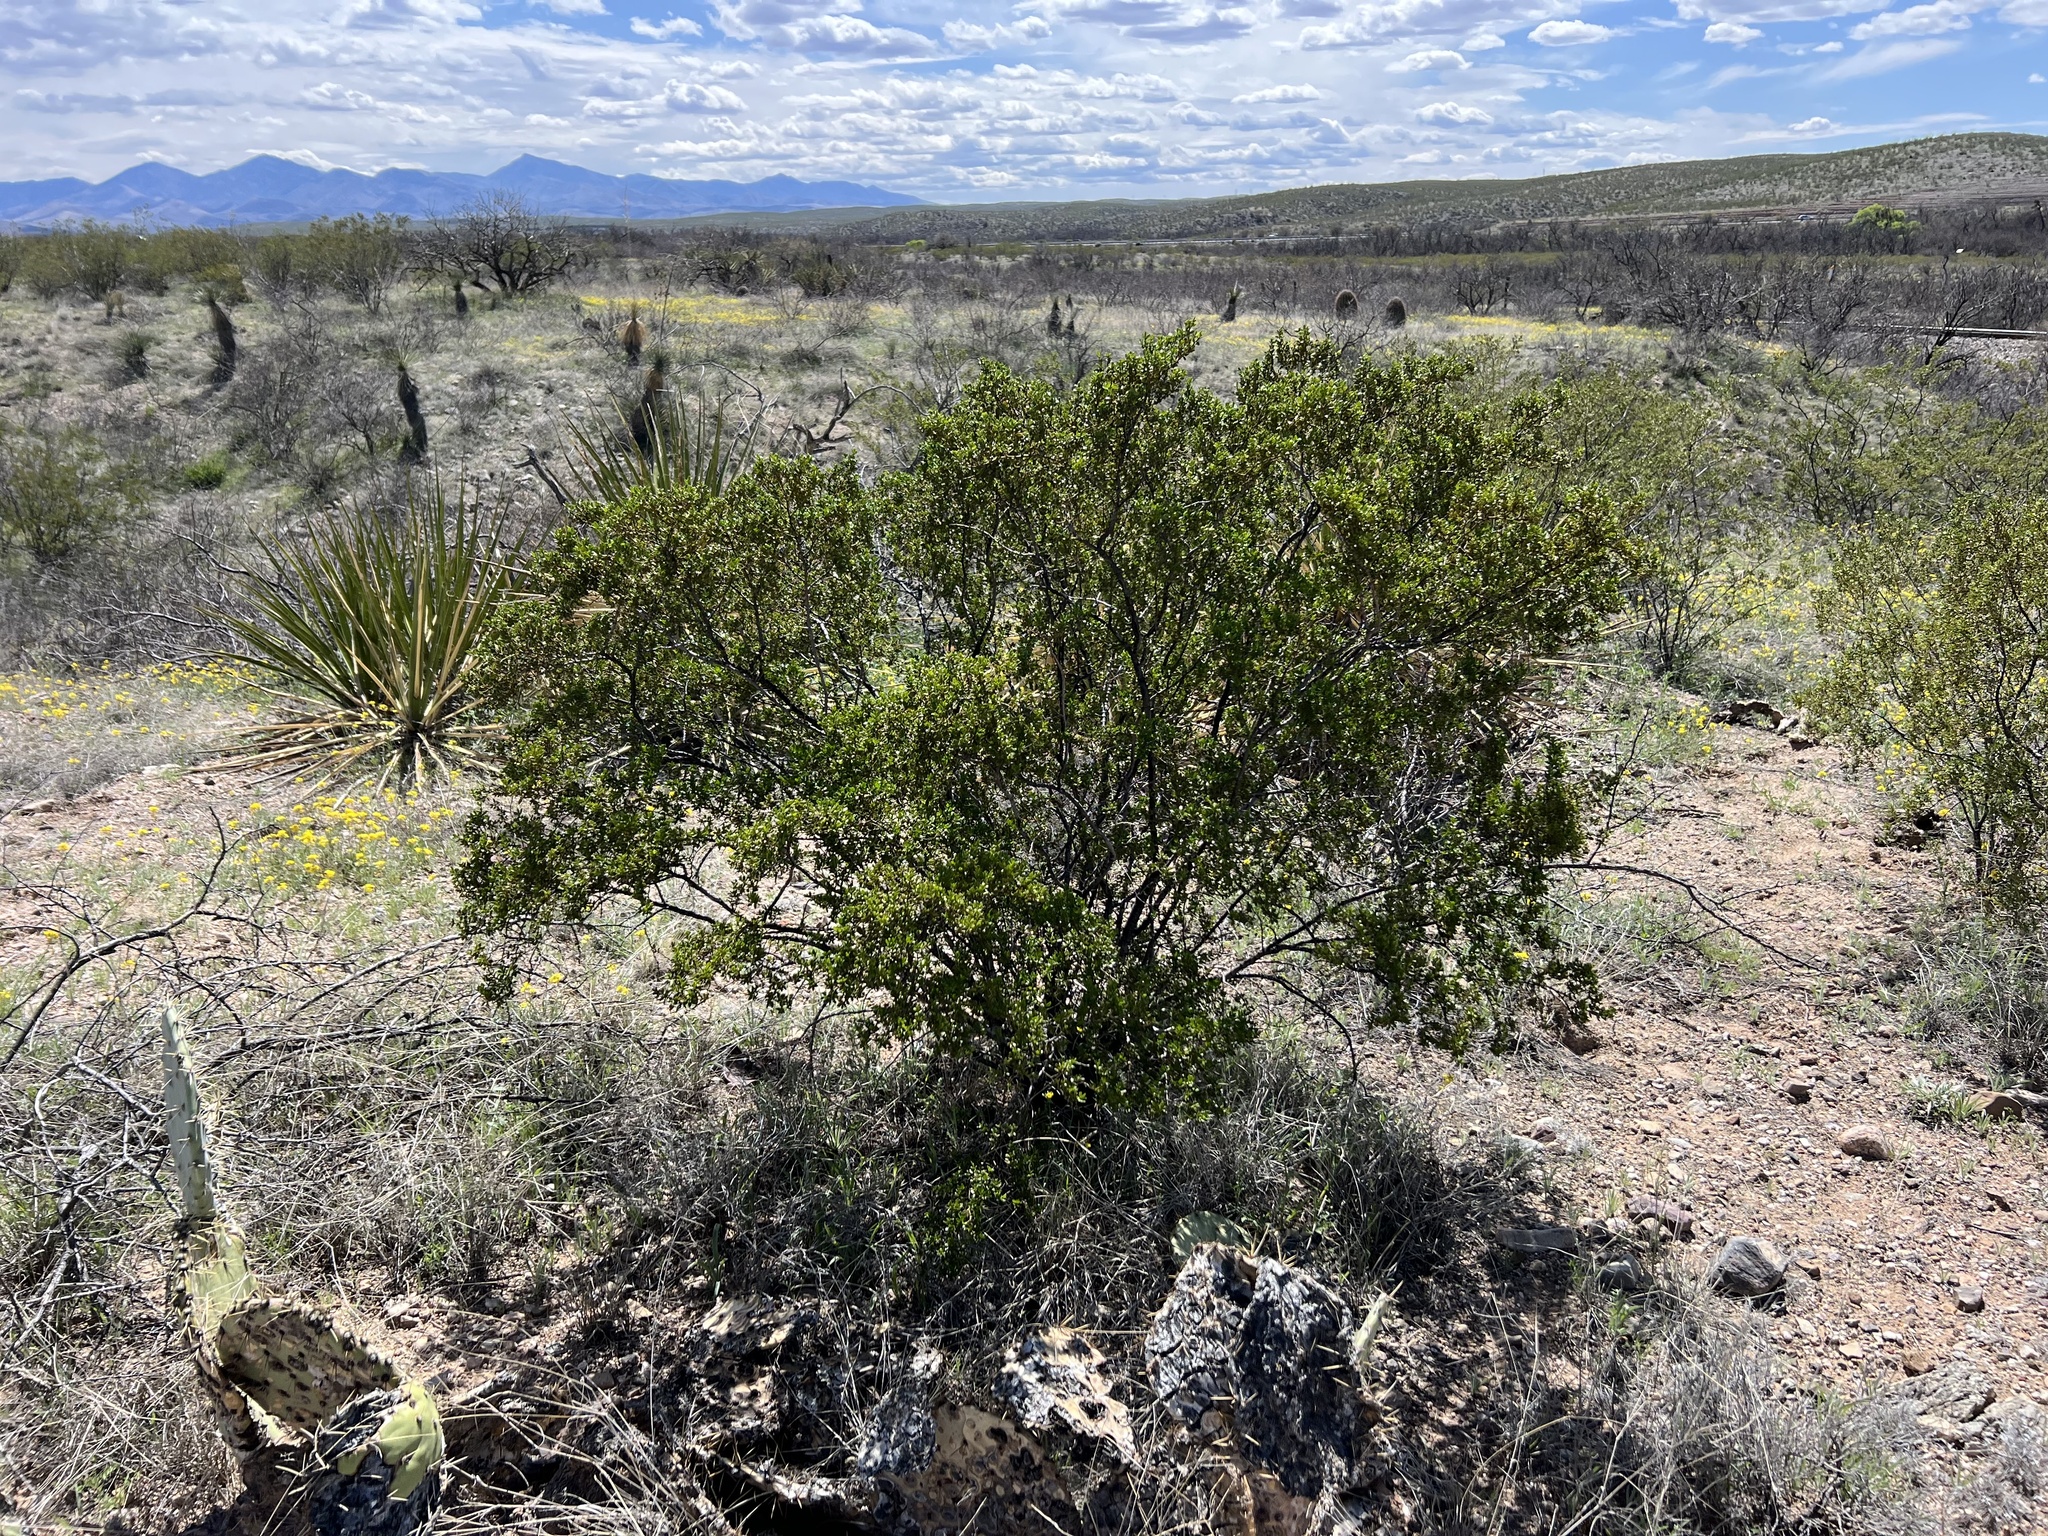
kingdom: Plantae
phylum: Tracheophyta
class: Magnoliopsida
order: Zygophyllales
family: Zygophyllaceae
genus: Larrea
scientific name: Larrea tridentata
